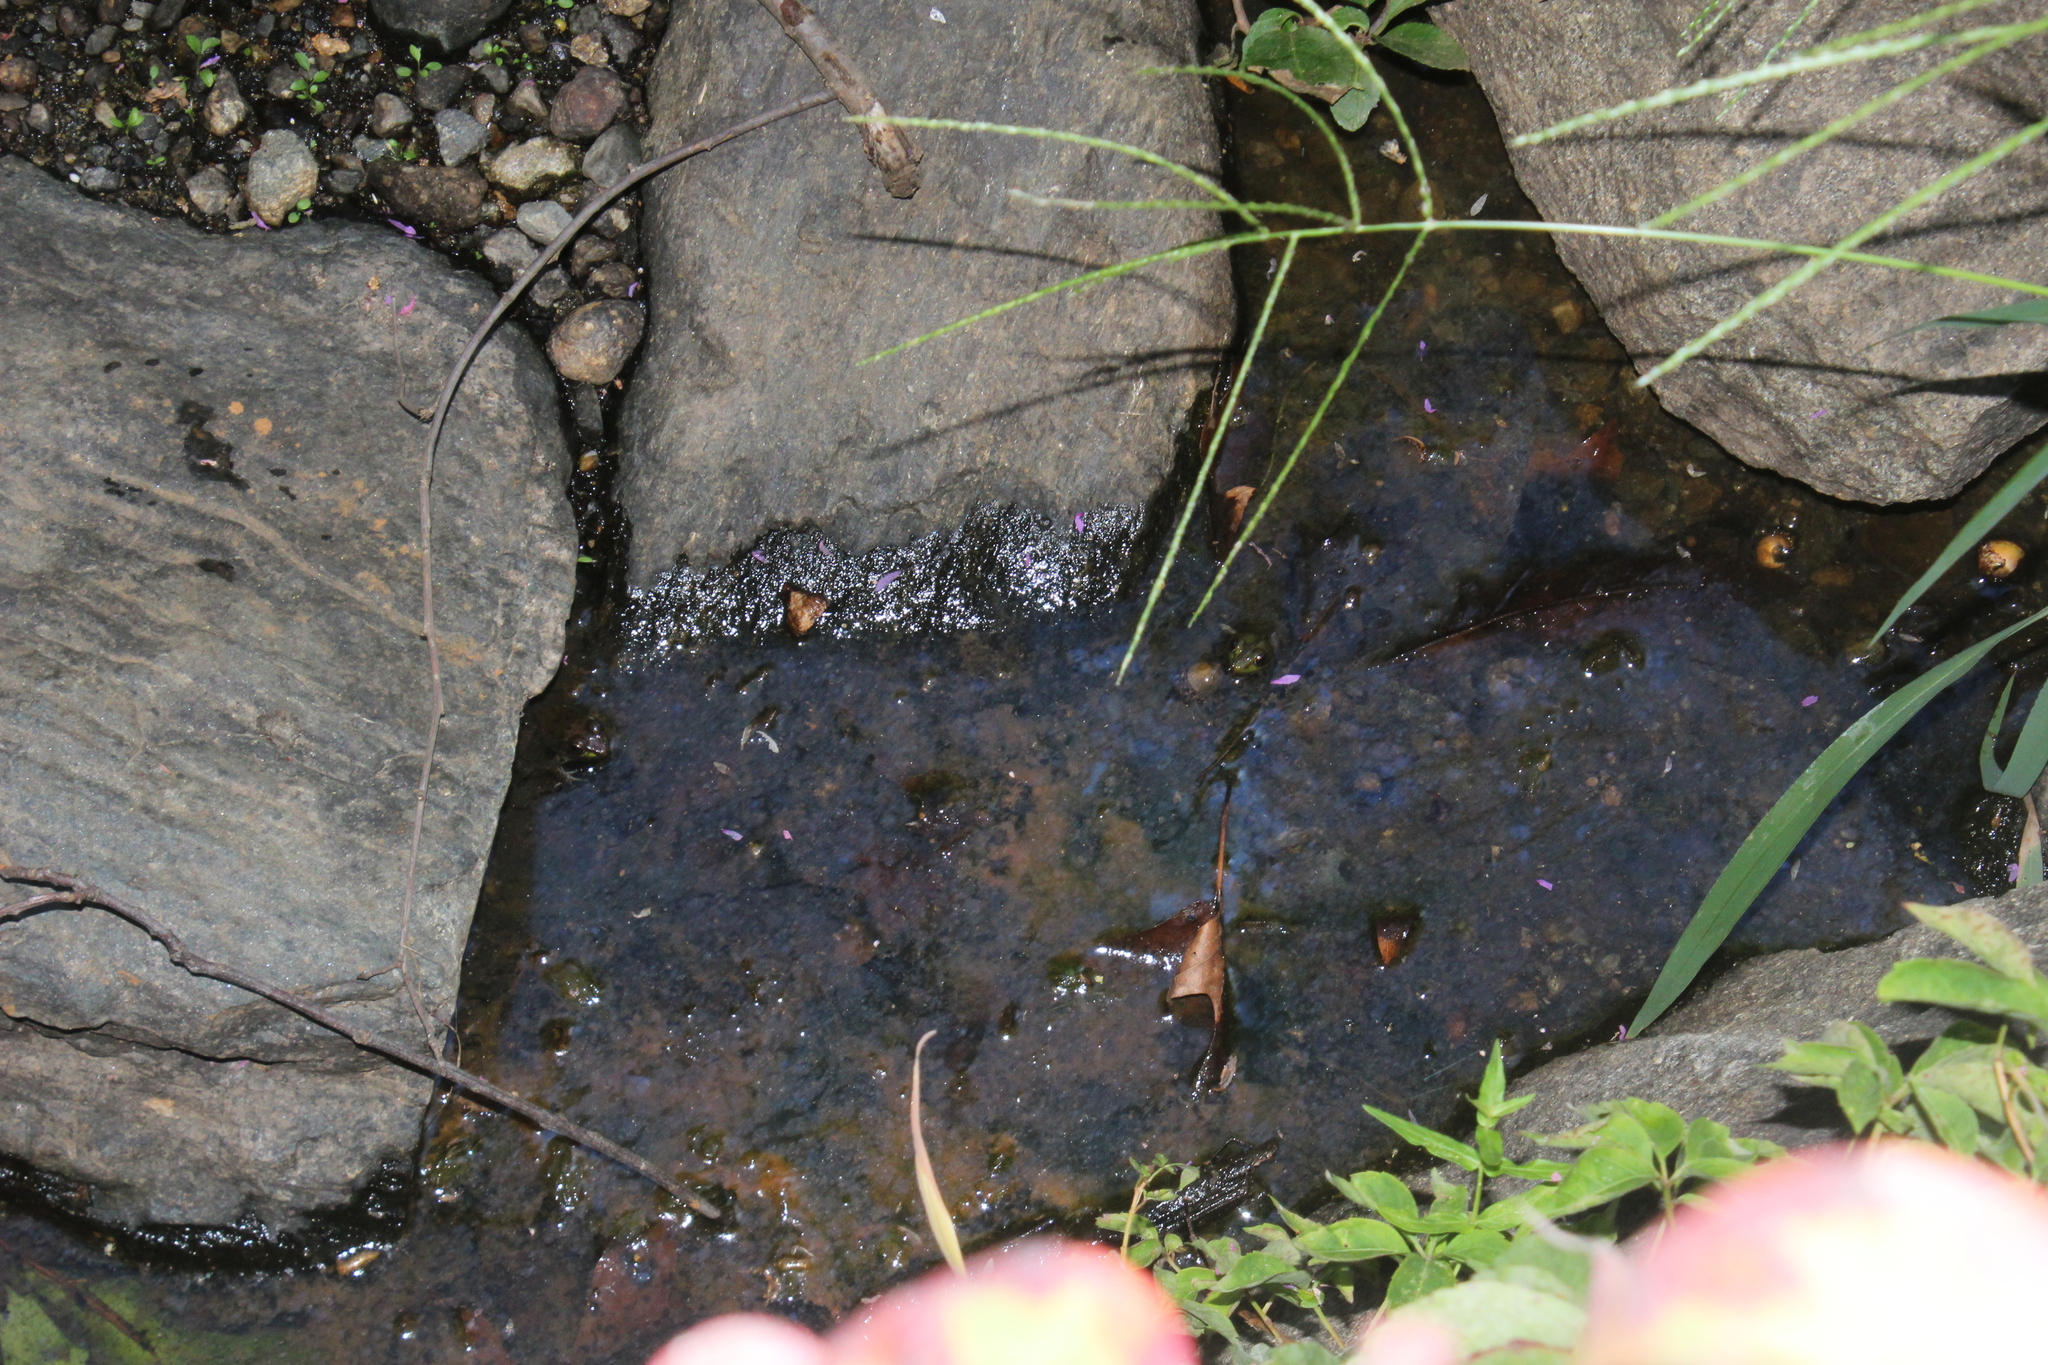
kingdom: Animalia
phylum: Chordata
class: Amphibia
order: Anura
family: Ranidae
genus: Lithobates
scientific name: Lithobates clamitans
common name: Green frog
